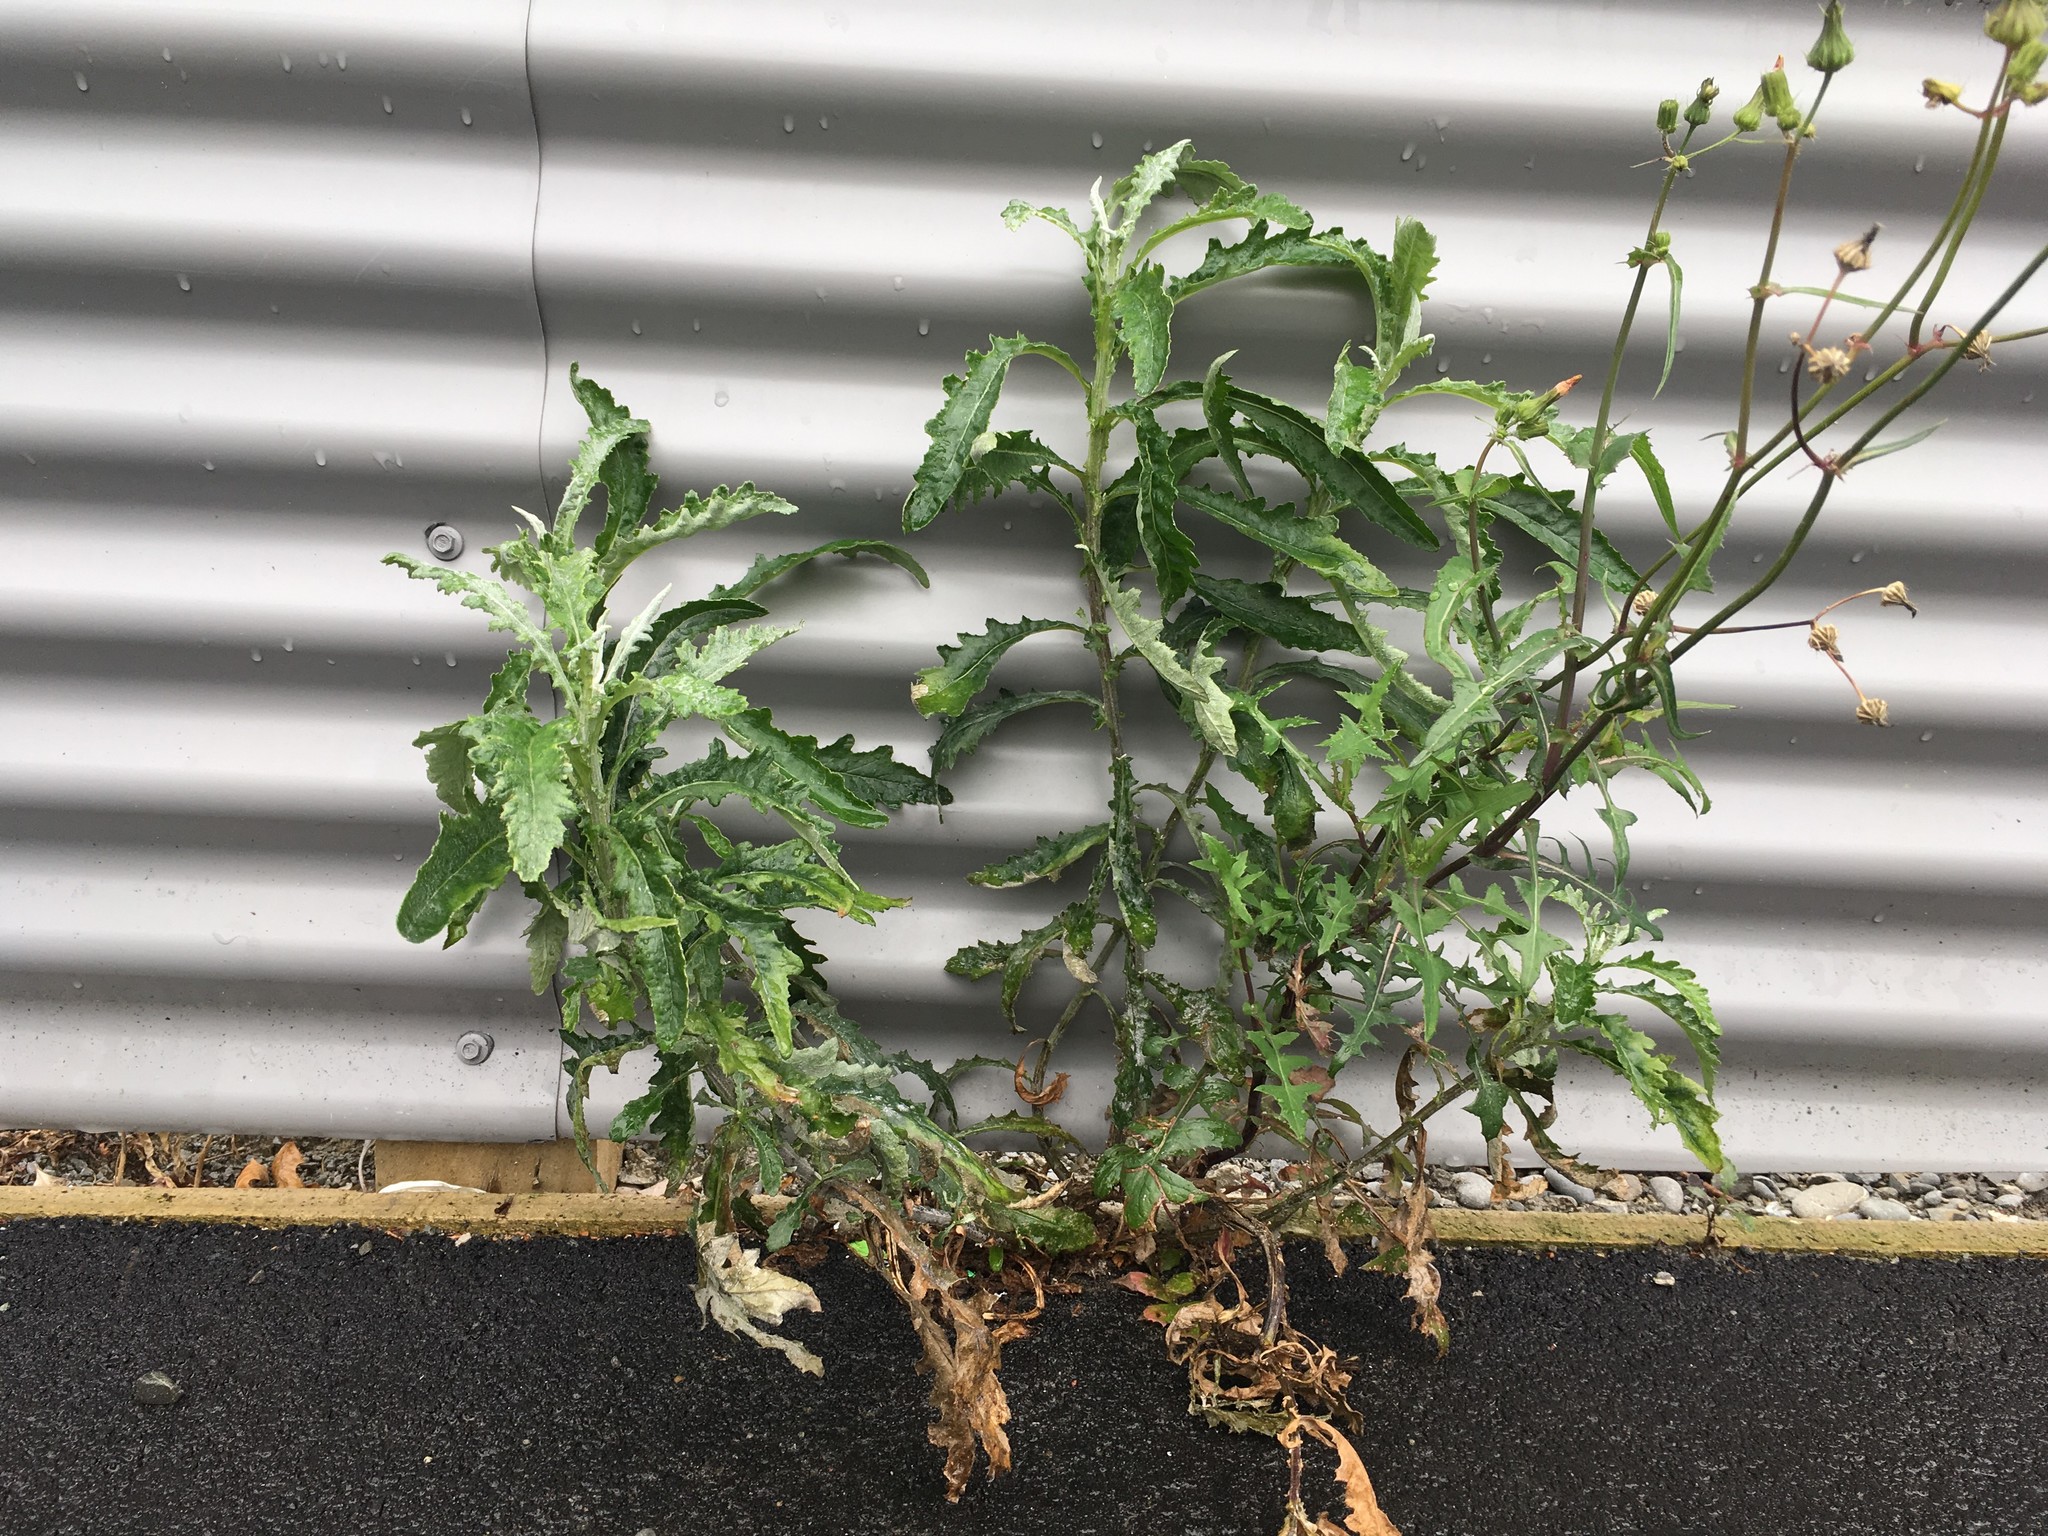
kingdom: Plantae
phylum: Tracheophyta
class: Magnoliopsida
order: Asterales
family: Asteraceae
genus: Senecio
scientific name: Senecio glomeratus
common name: Cutleaf burnweed
